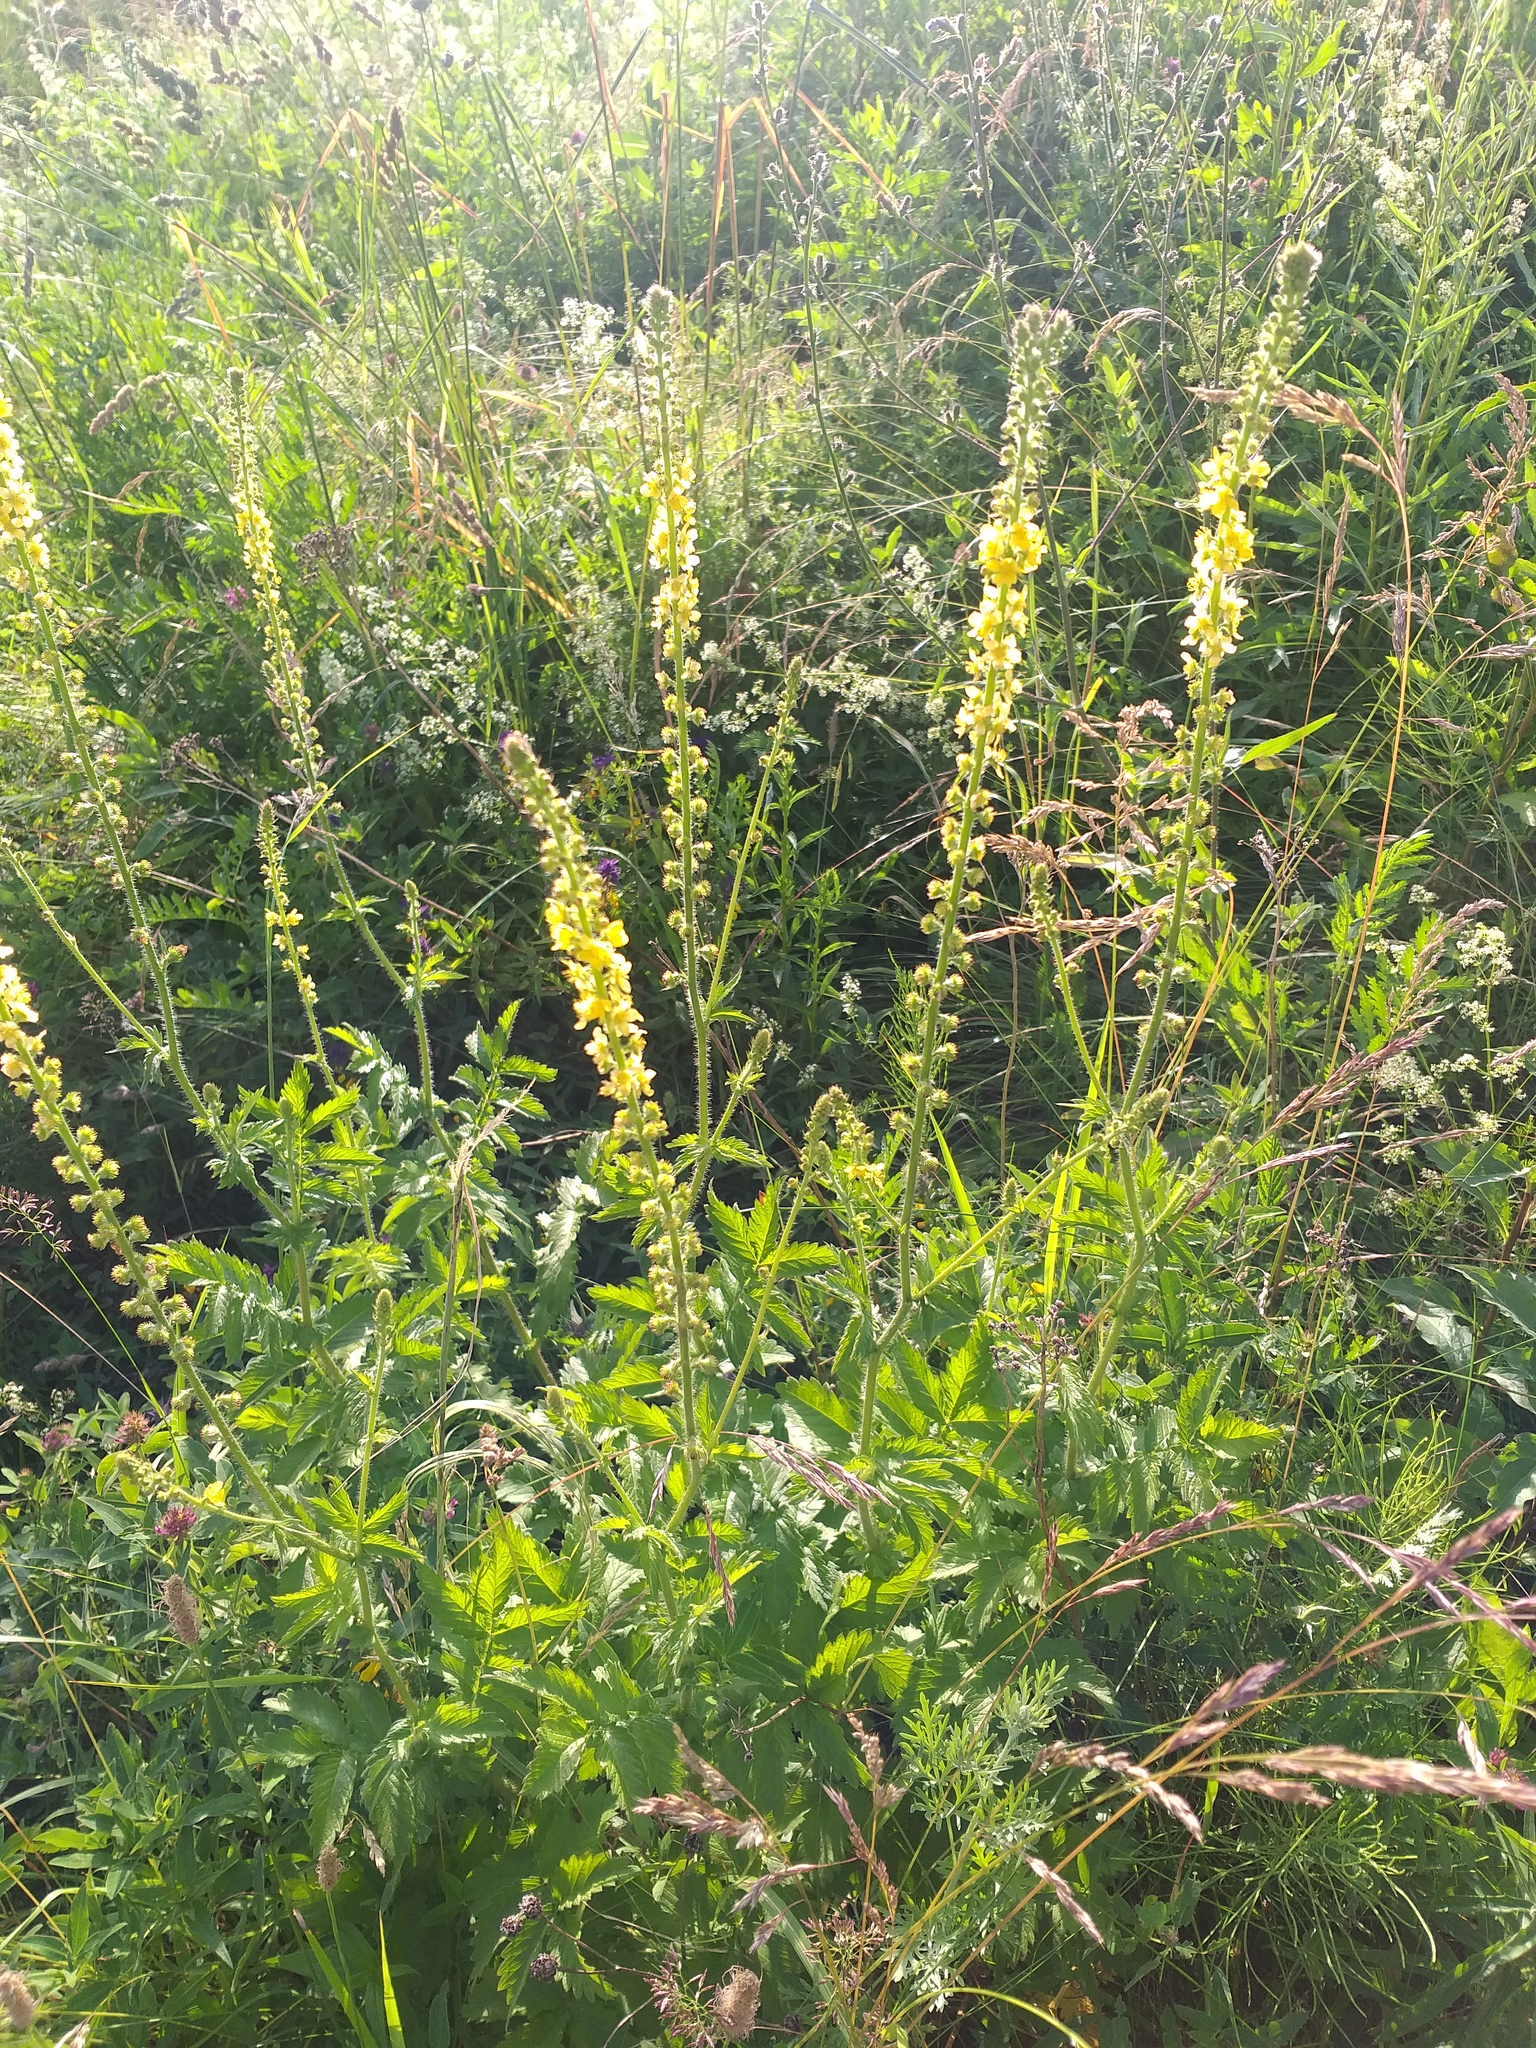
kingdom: Plantae
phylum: Tracheophyta
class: Magnoliopsida
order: Rosales
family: Rosaceae
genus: Agrimonia
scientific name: Agrimonia eupatoria
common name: Agrimony
